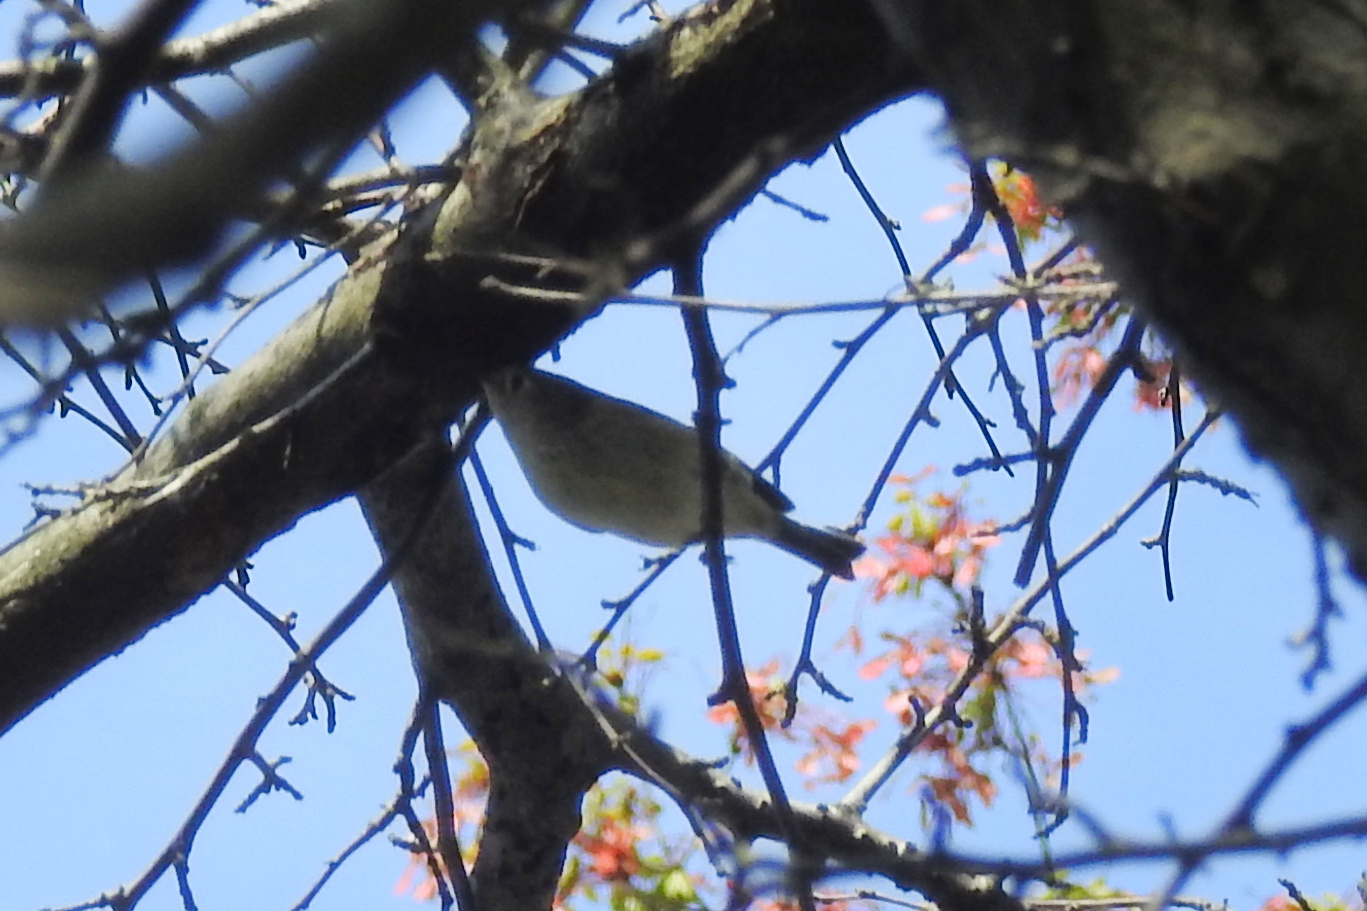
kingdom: Animalia
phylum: Chordata
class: Aves
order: Passeriformes
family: Regulidae
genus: Regulus
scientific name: Regulus calendula
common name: Ruby-crowned kinglet
